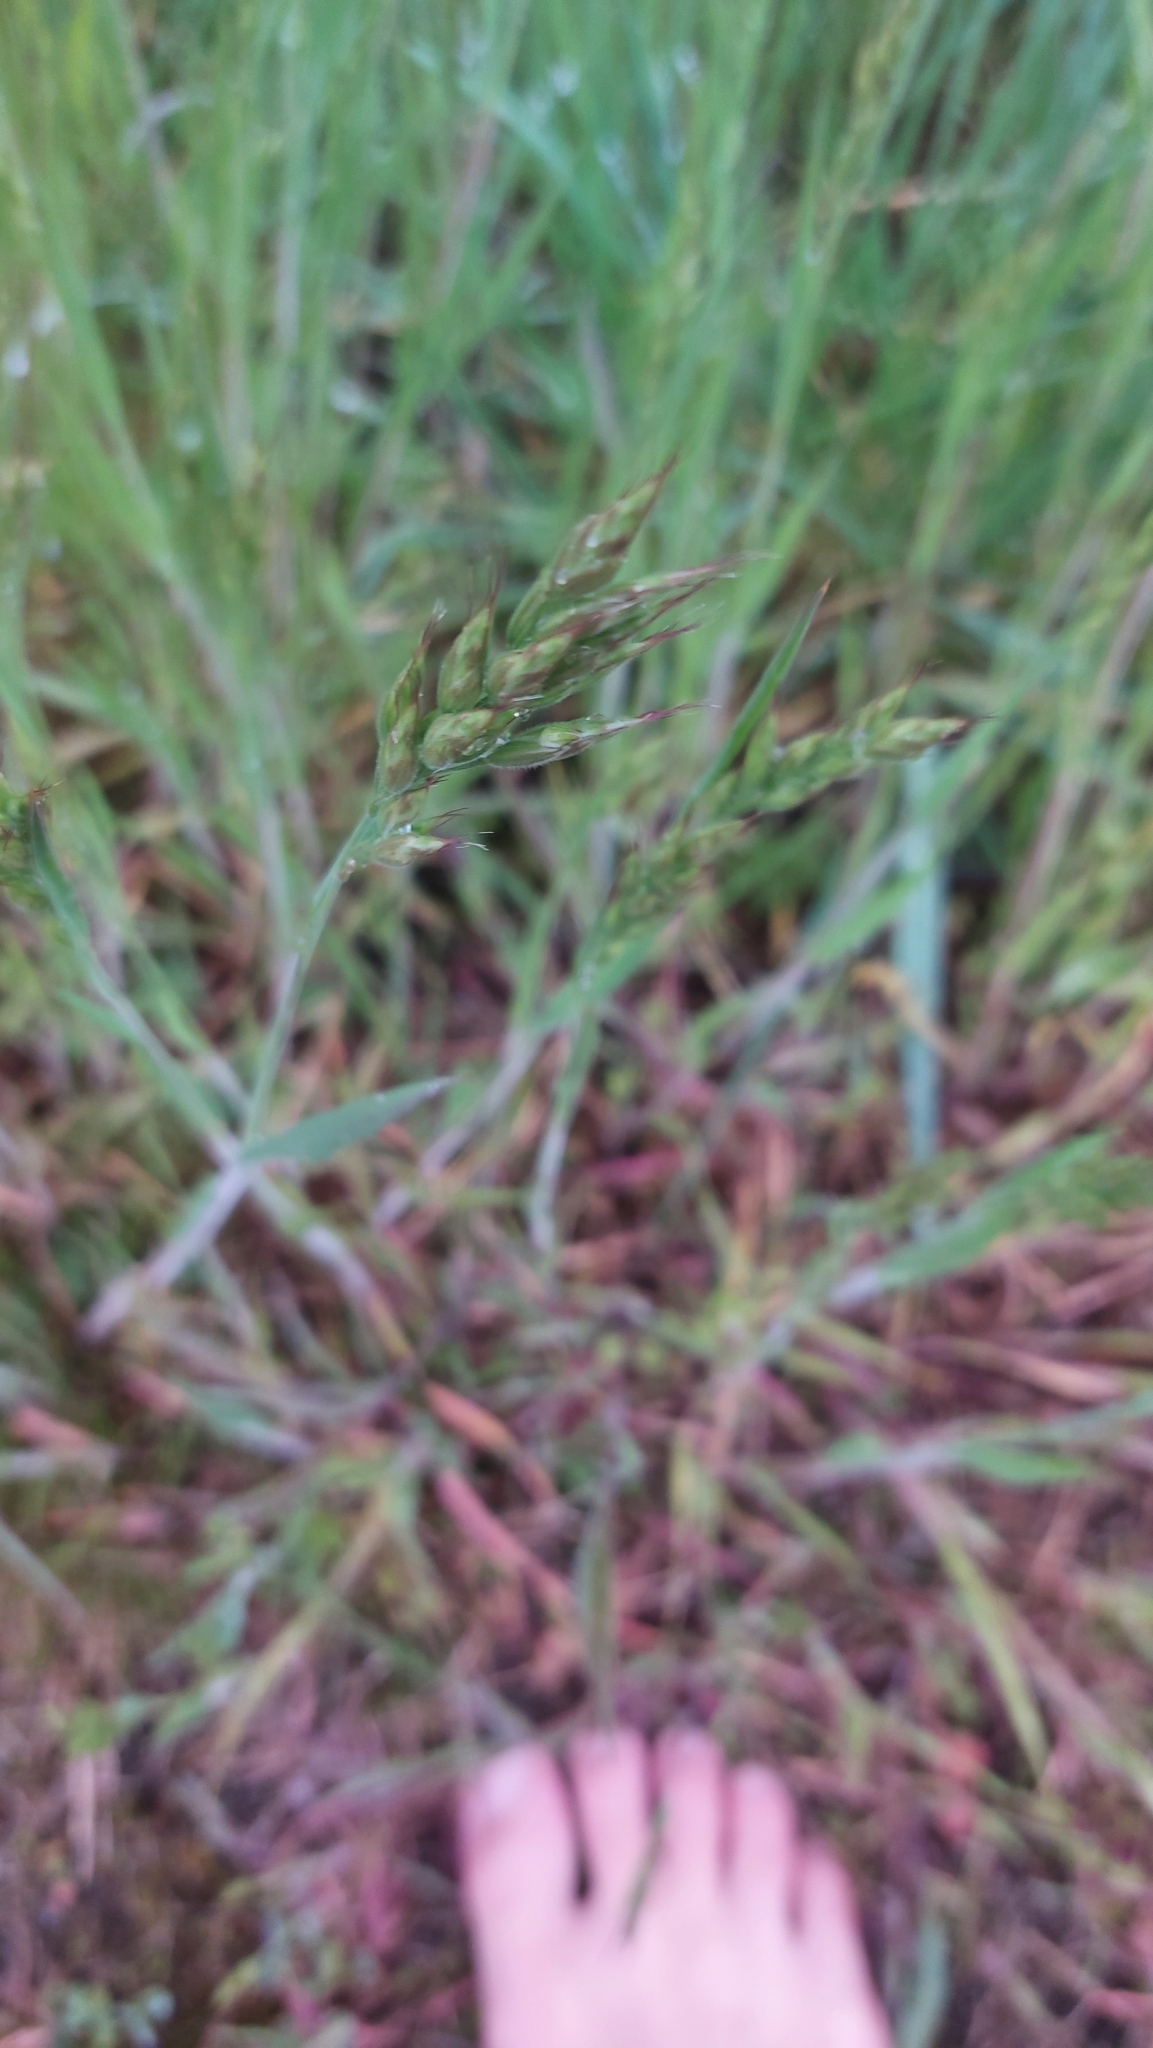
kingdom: Plantae
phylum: Tracheophyta
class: Liliopsida
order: Poales
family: Poaceae
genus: Bromus
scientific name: Bromus hordeaceus
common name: Soft brome
